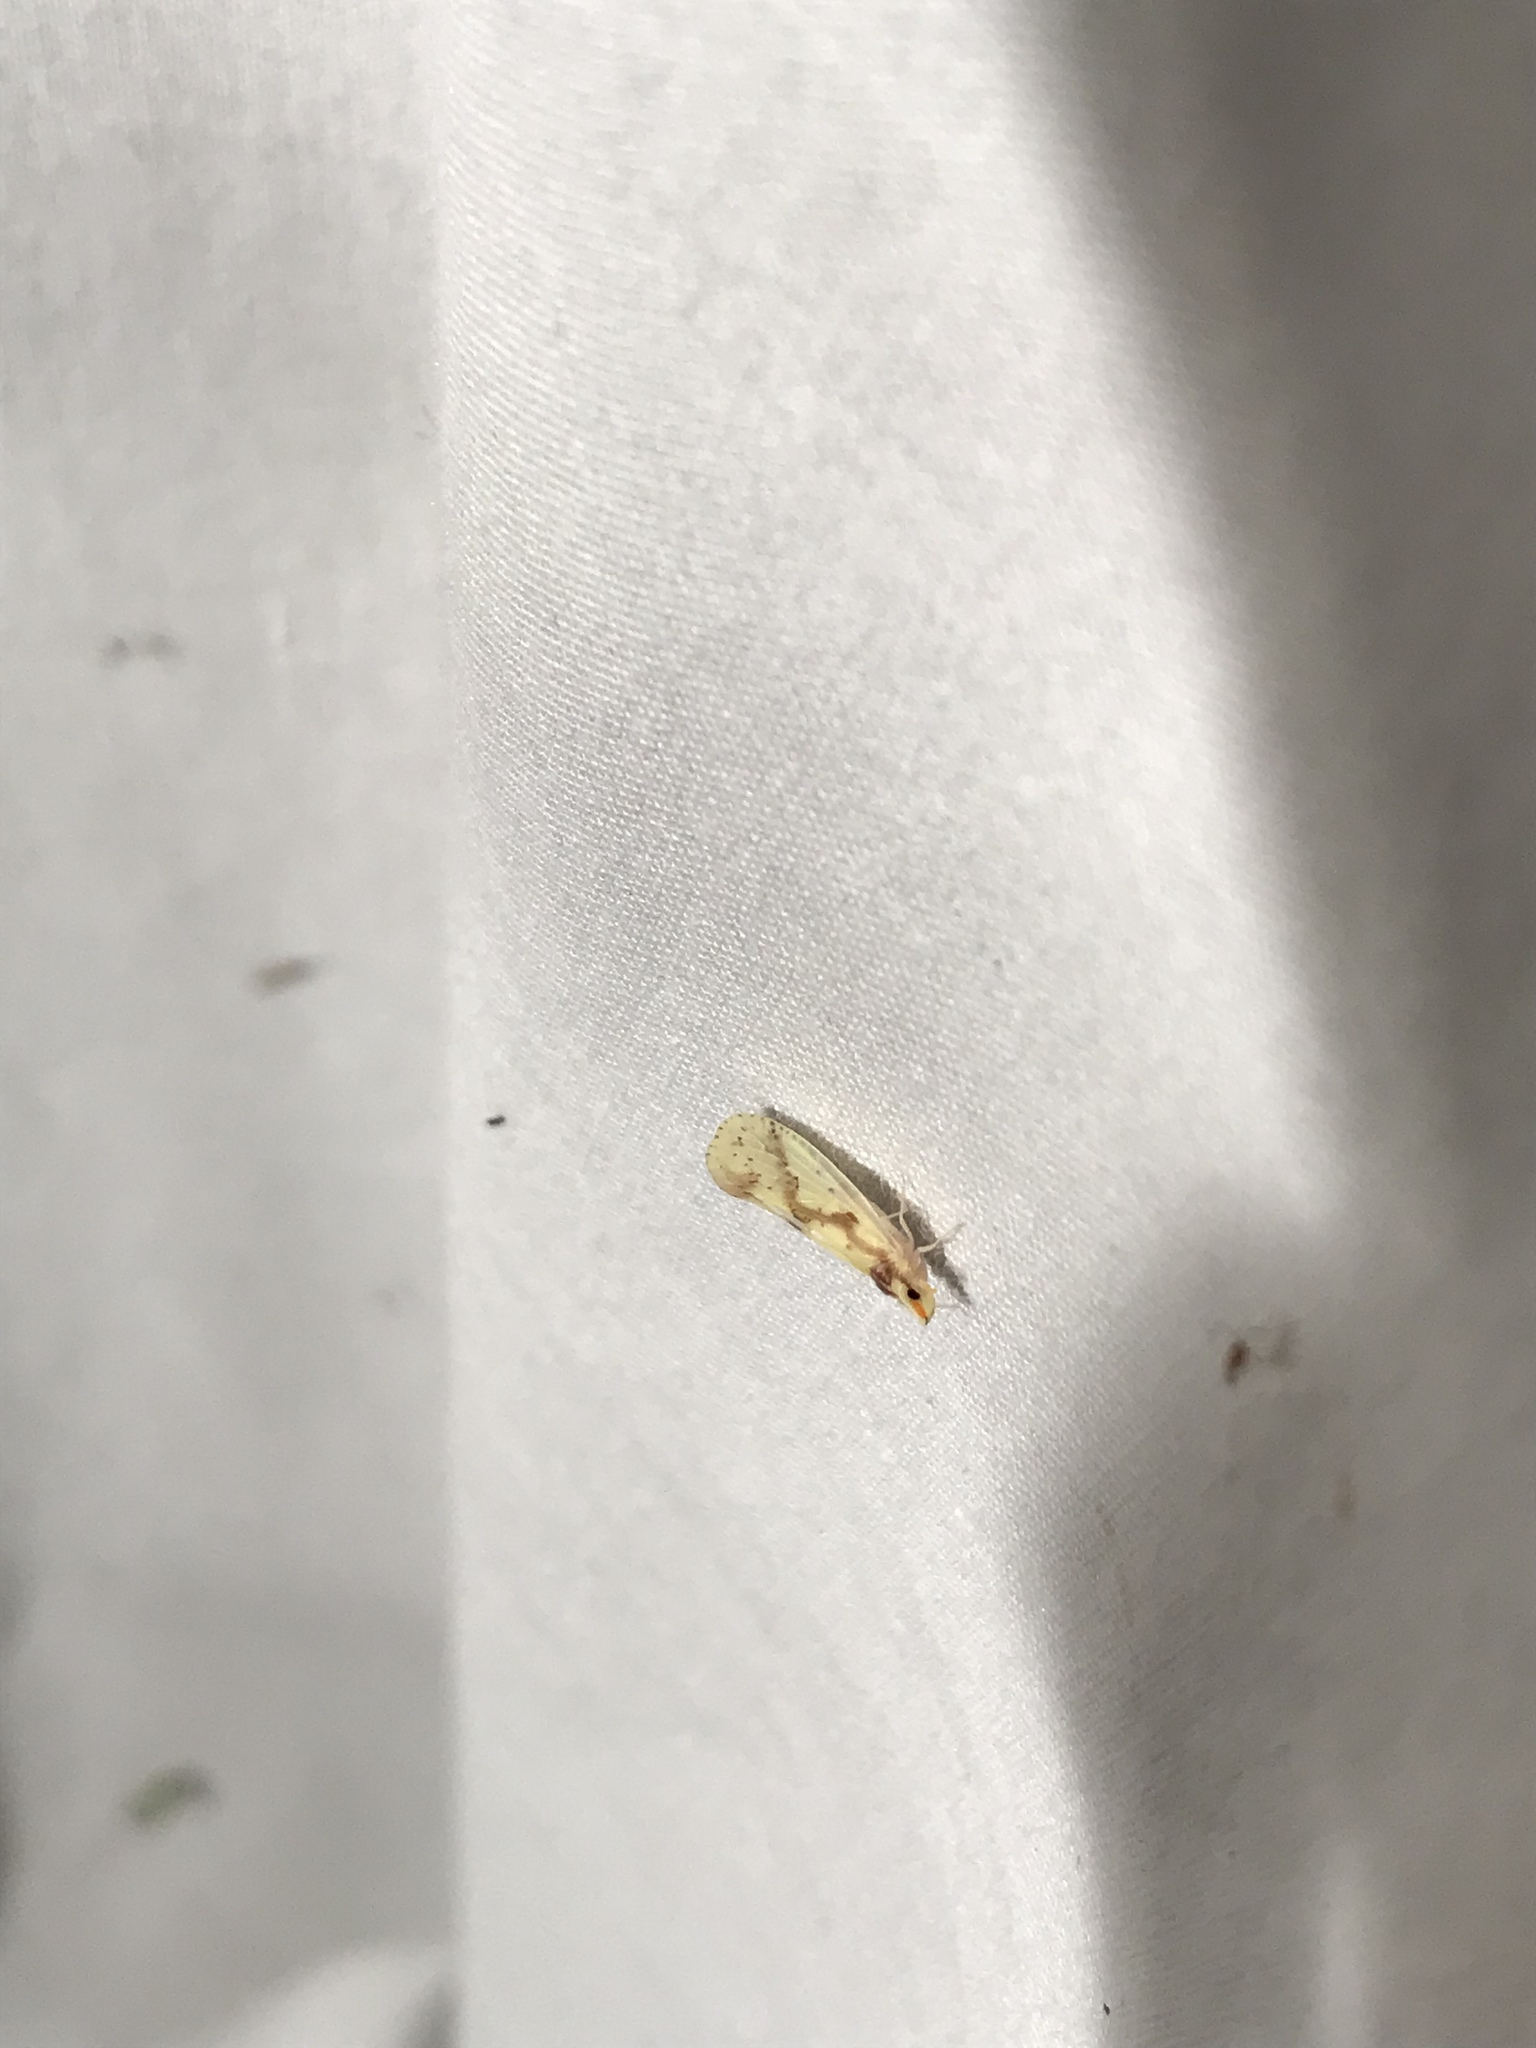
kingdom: Animalia
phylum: Arthropoda
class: Insecta
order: Hemiptera
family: Derbidae
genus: Otiocerus
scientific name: Otiocerus wolfii
